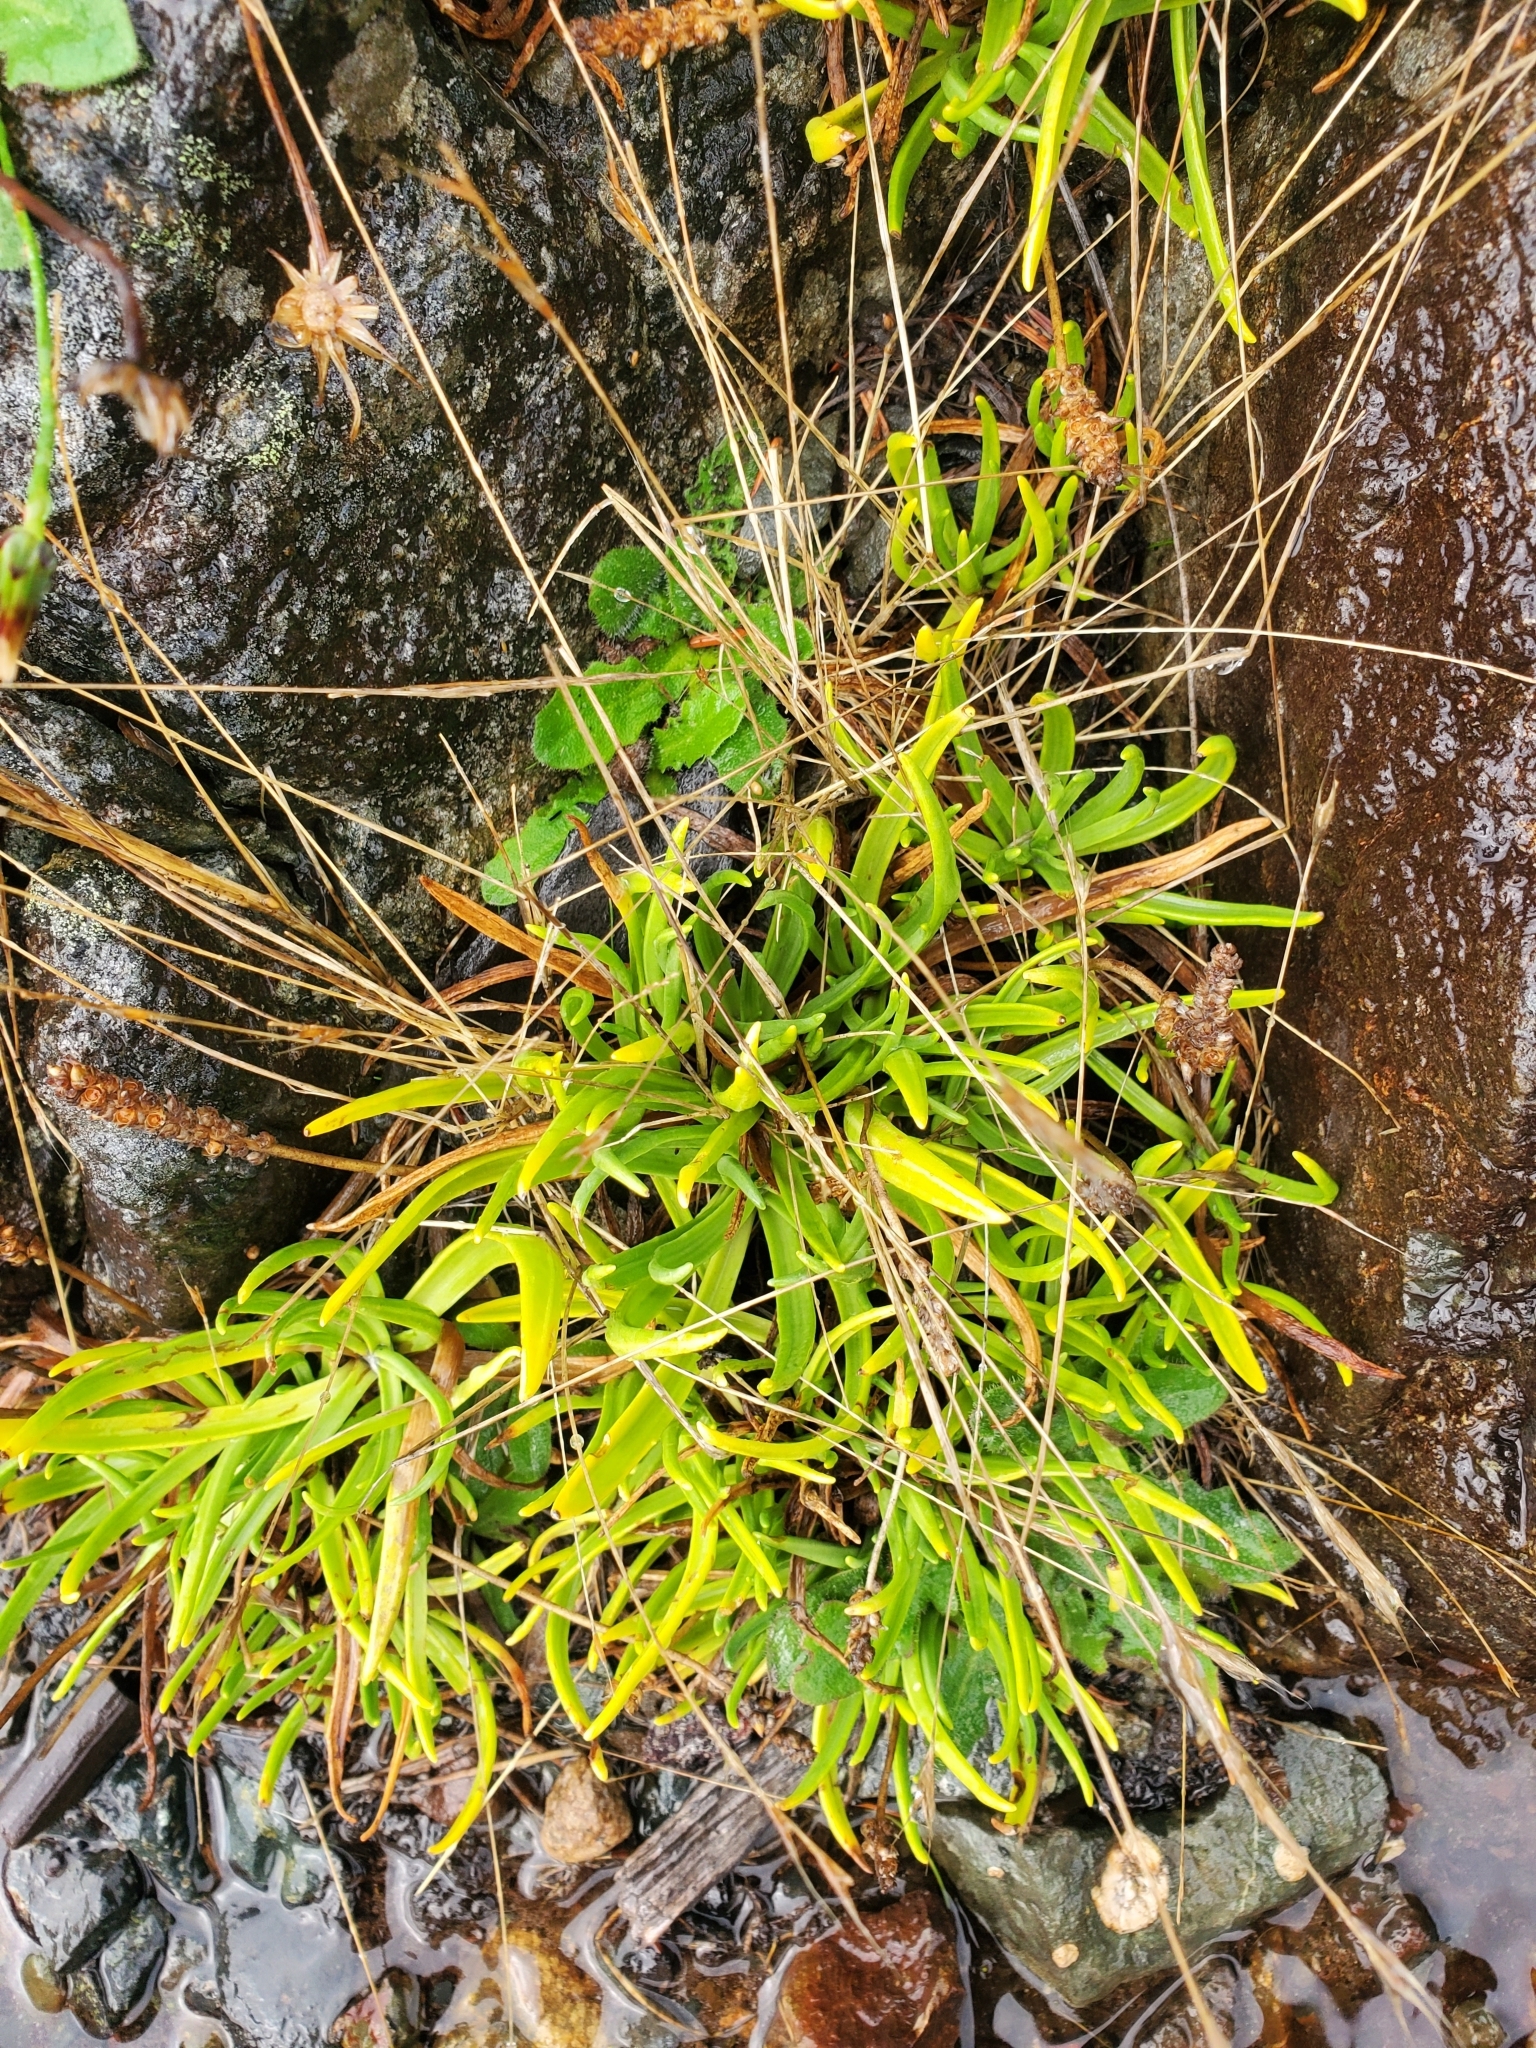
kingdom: Plantae
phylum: Tracheophyta
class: Magnoliopsida
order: Lamiales
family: Plantaginaceae
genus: Plantago
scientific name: Plantago maritima
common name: Sea plantain
